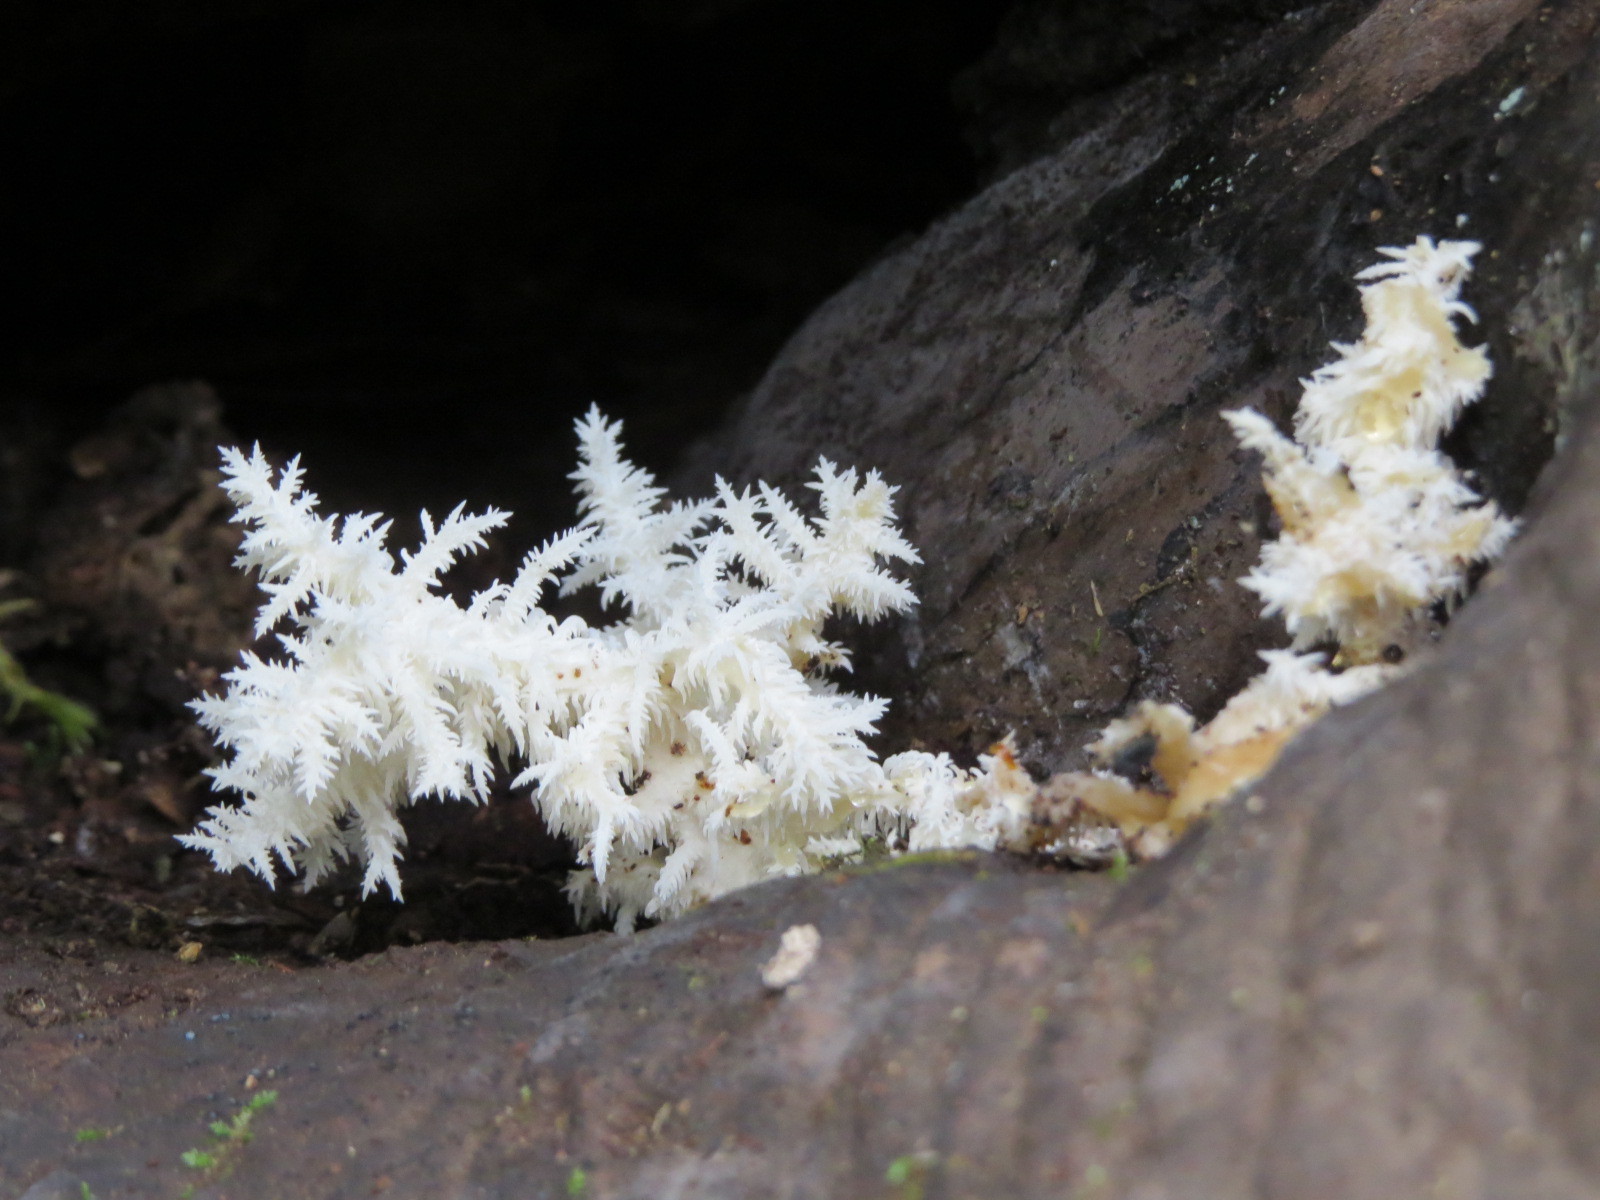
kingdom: Fungi
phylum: Basidiomycota
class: Agaricomycetes
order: Russulales
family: Hericiaceae
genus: Hericium
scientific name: Hericium coralloides
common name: Coral tooth
